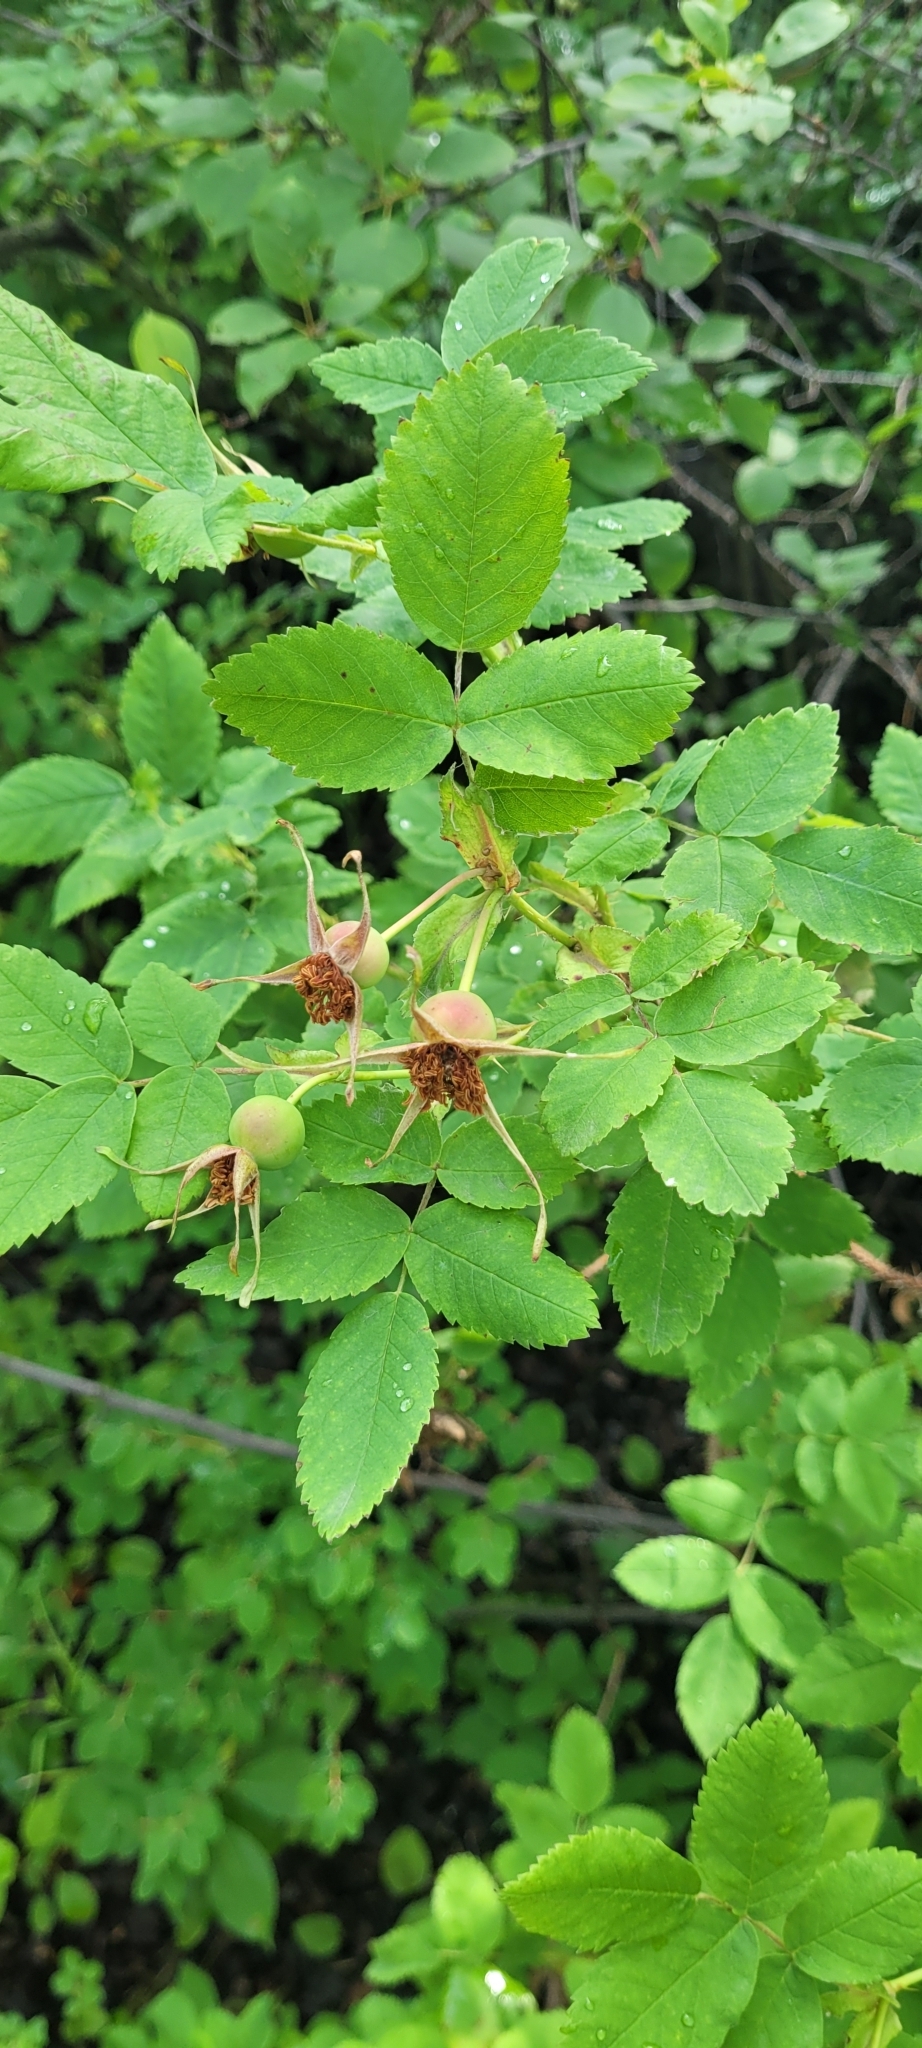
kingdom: Plantae
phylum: Tracheophyta
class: Magnoliopsida
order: Cornales
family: Cornaceae
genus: Cornus
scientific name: Cornus sericea
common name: Red-osier dogwood
